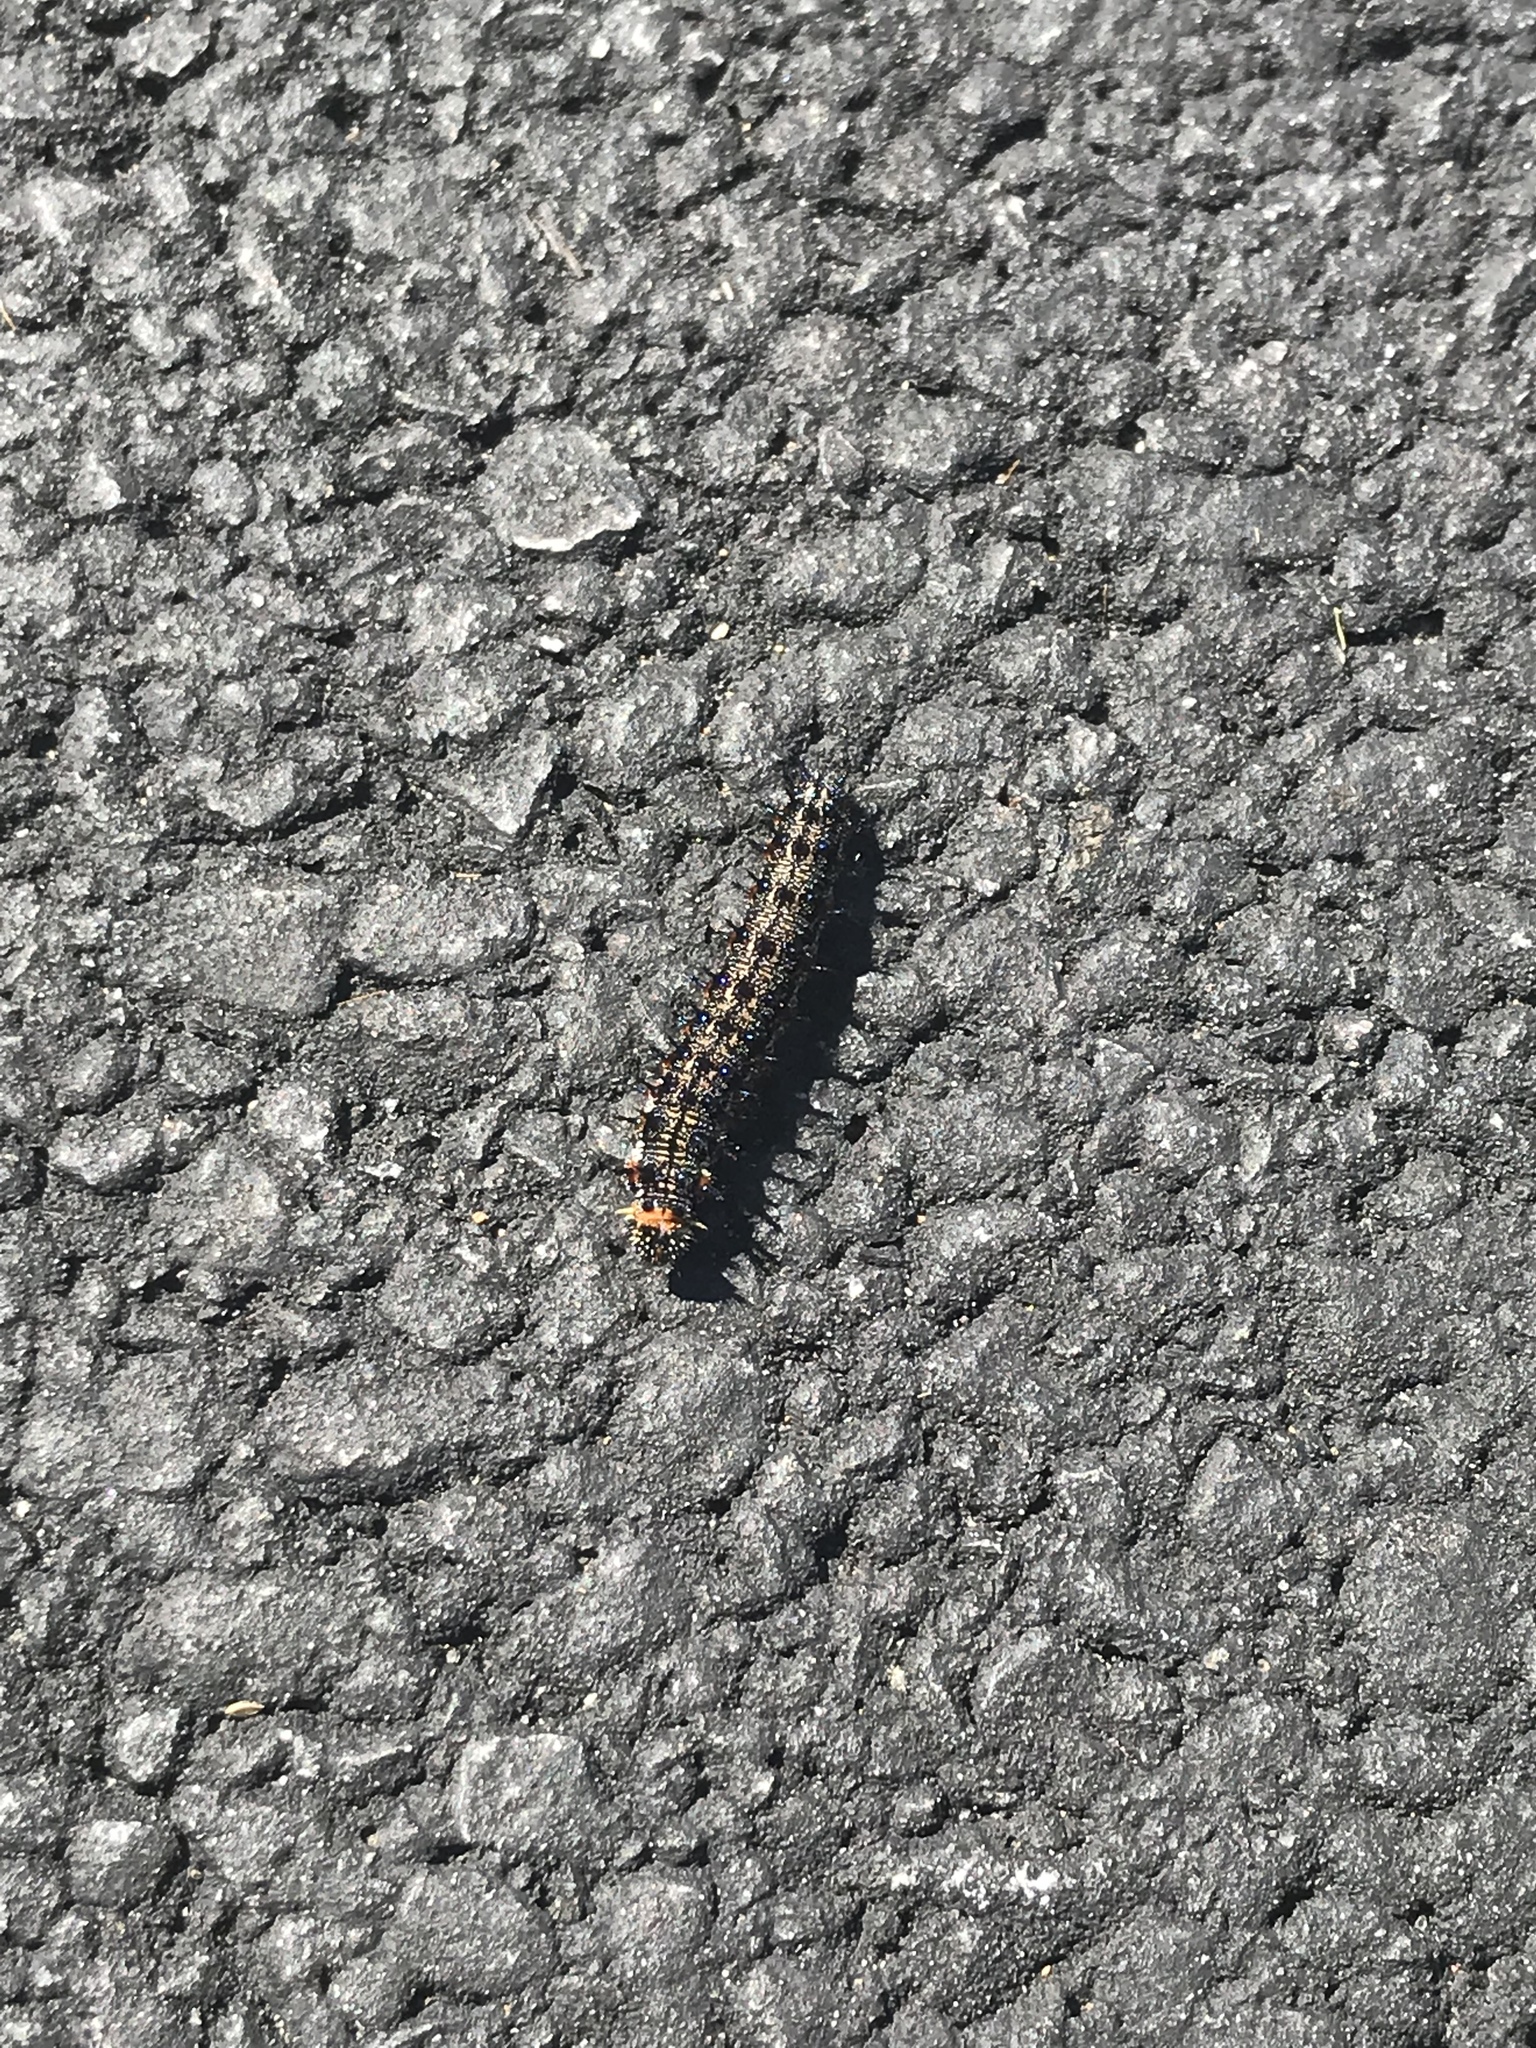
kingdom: Animalia
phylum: Arthropoda
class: Insecta
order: Lepidoptera
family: Nymphalidae
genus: Junonia
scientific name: Junonia coenia
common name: Common buckeye
